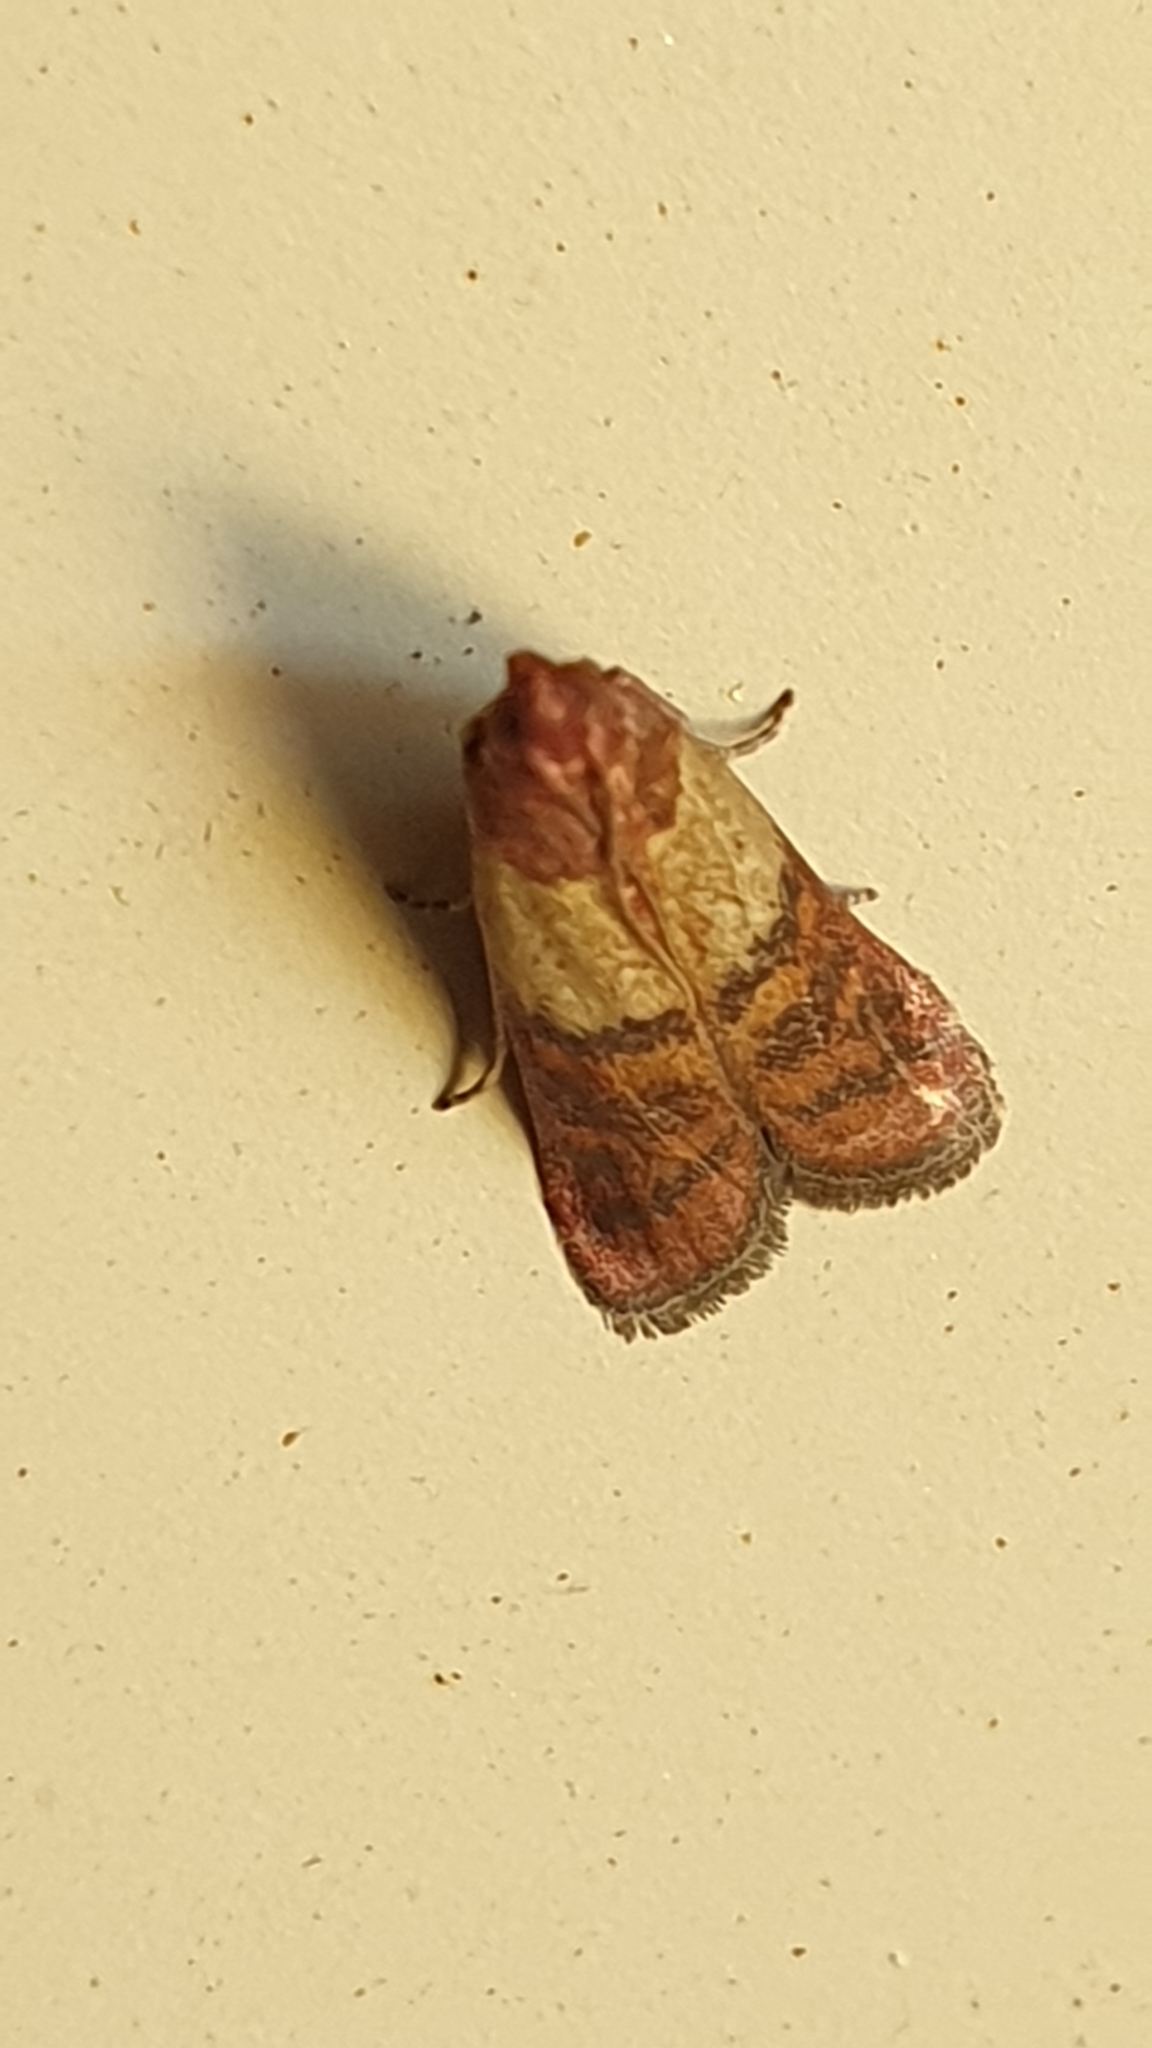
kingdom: Animalia
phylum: Arthropoda
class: Insecta
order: Lepidoptera
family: Pyralidae
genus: Plodia
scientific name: Plodia interpunctella
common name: Indian meal moth
